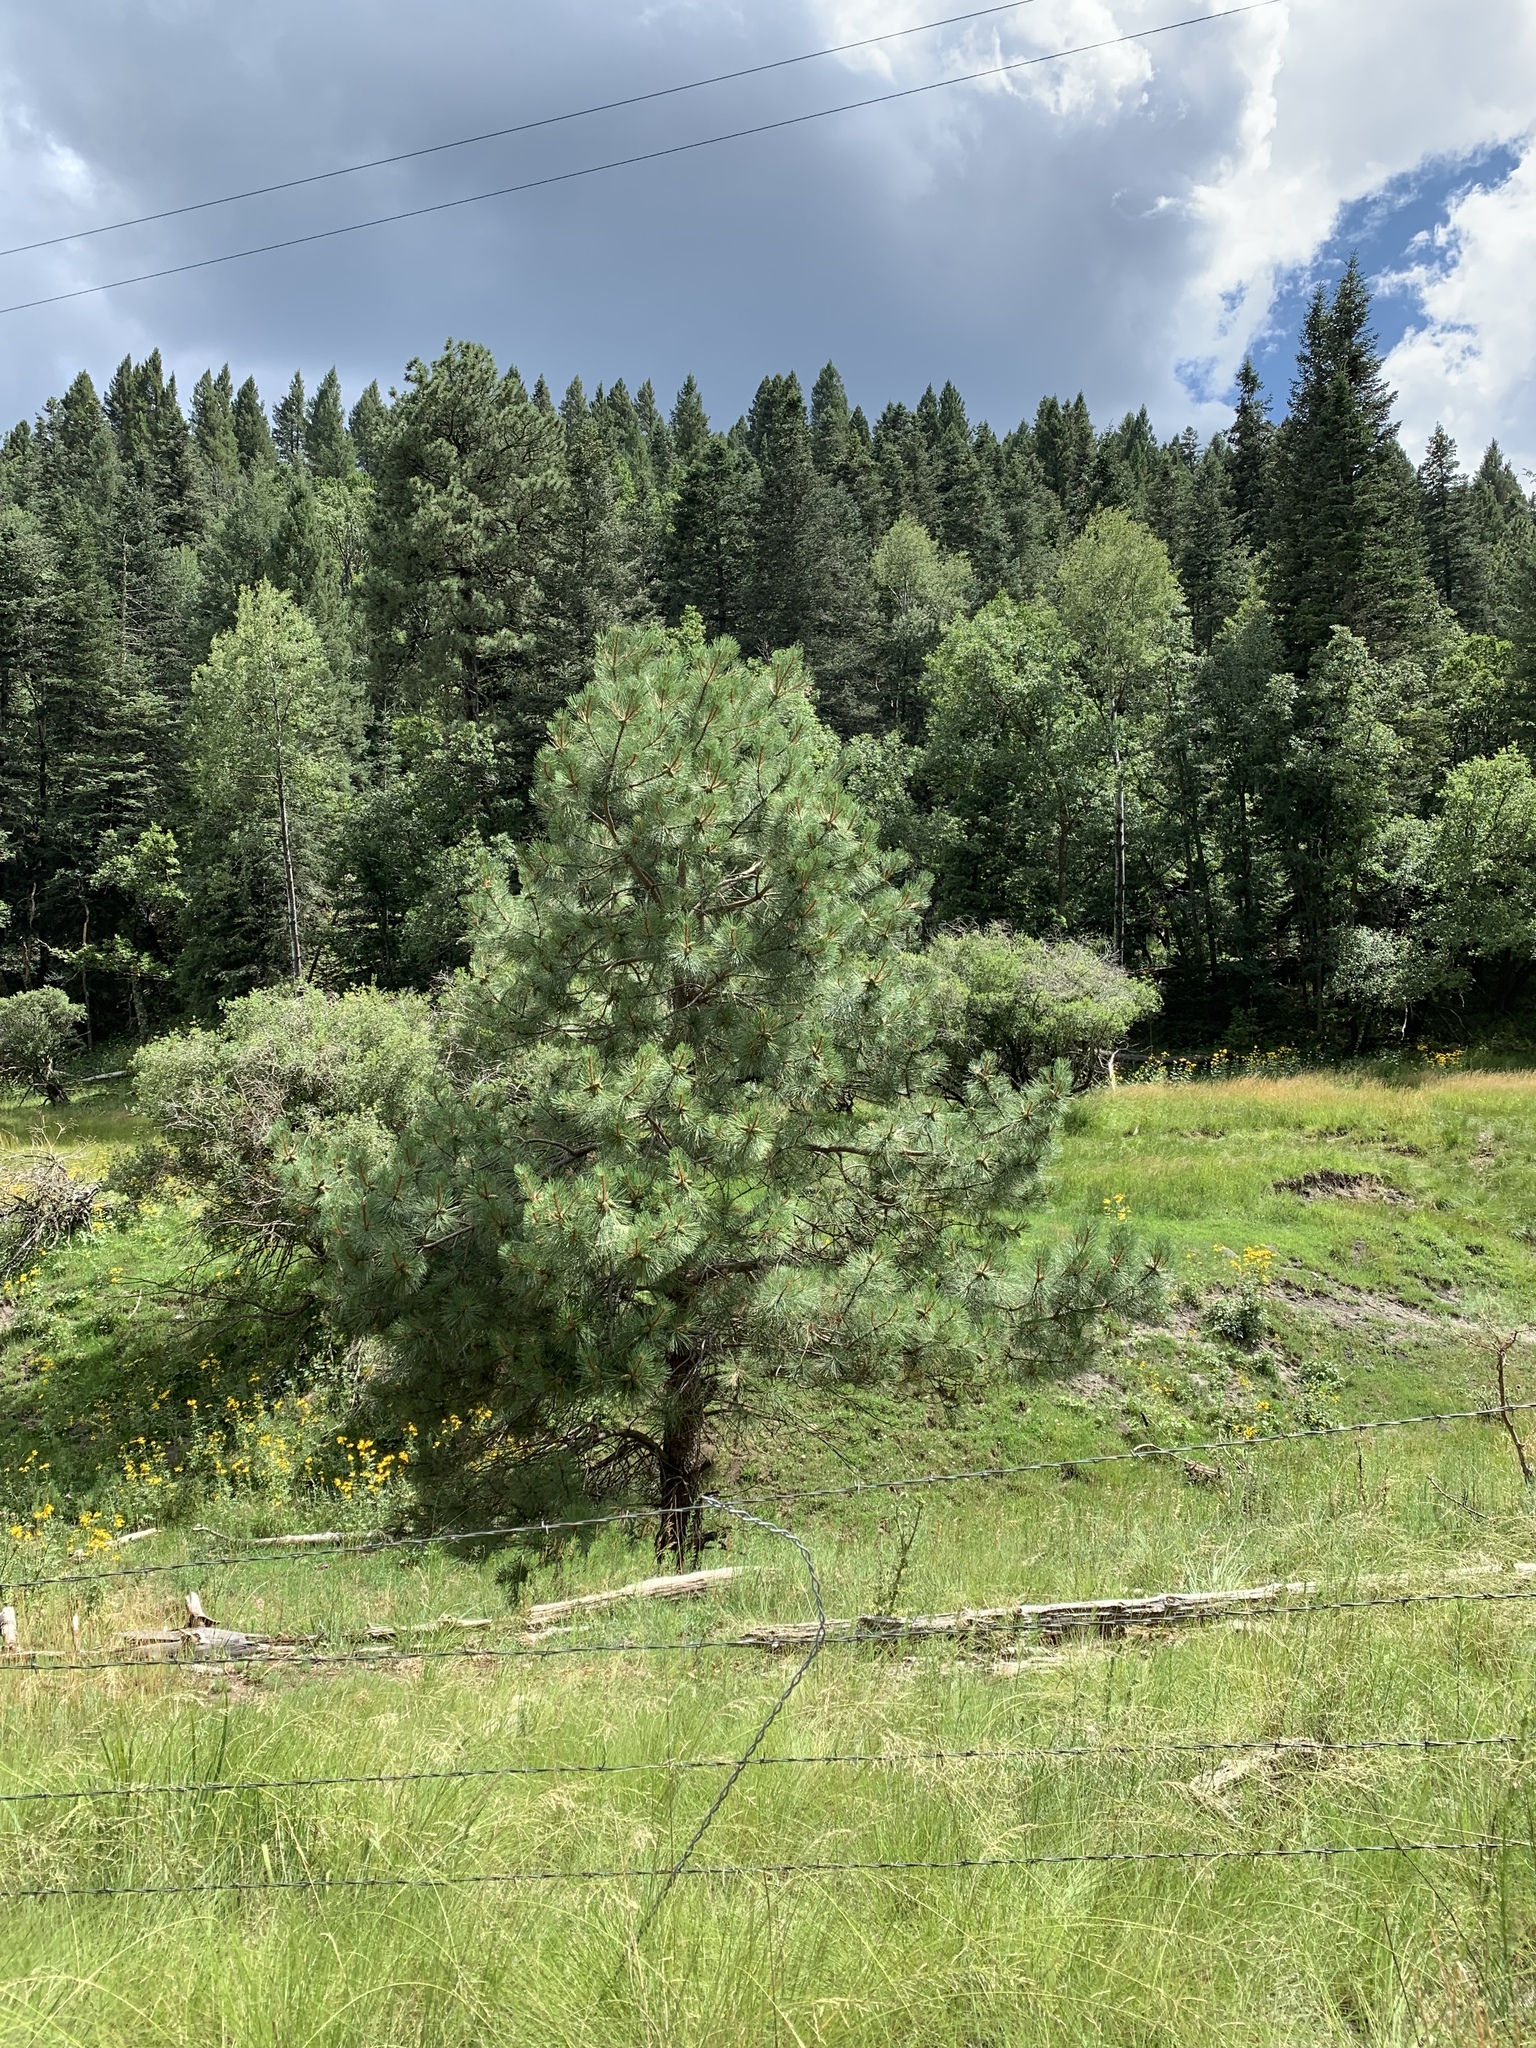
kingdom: Plantae
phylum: Tracheophyta
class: Pinopsida
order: Pinales
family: Pinaceae
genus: Pinus
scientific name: Pinus ponderosa
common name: Western yellow-pine
